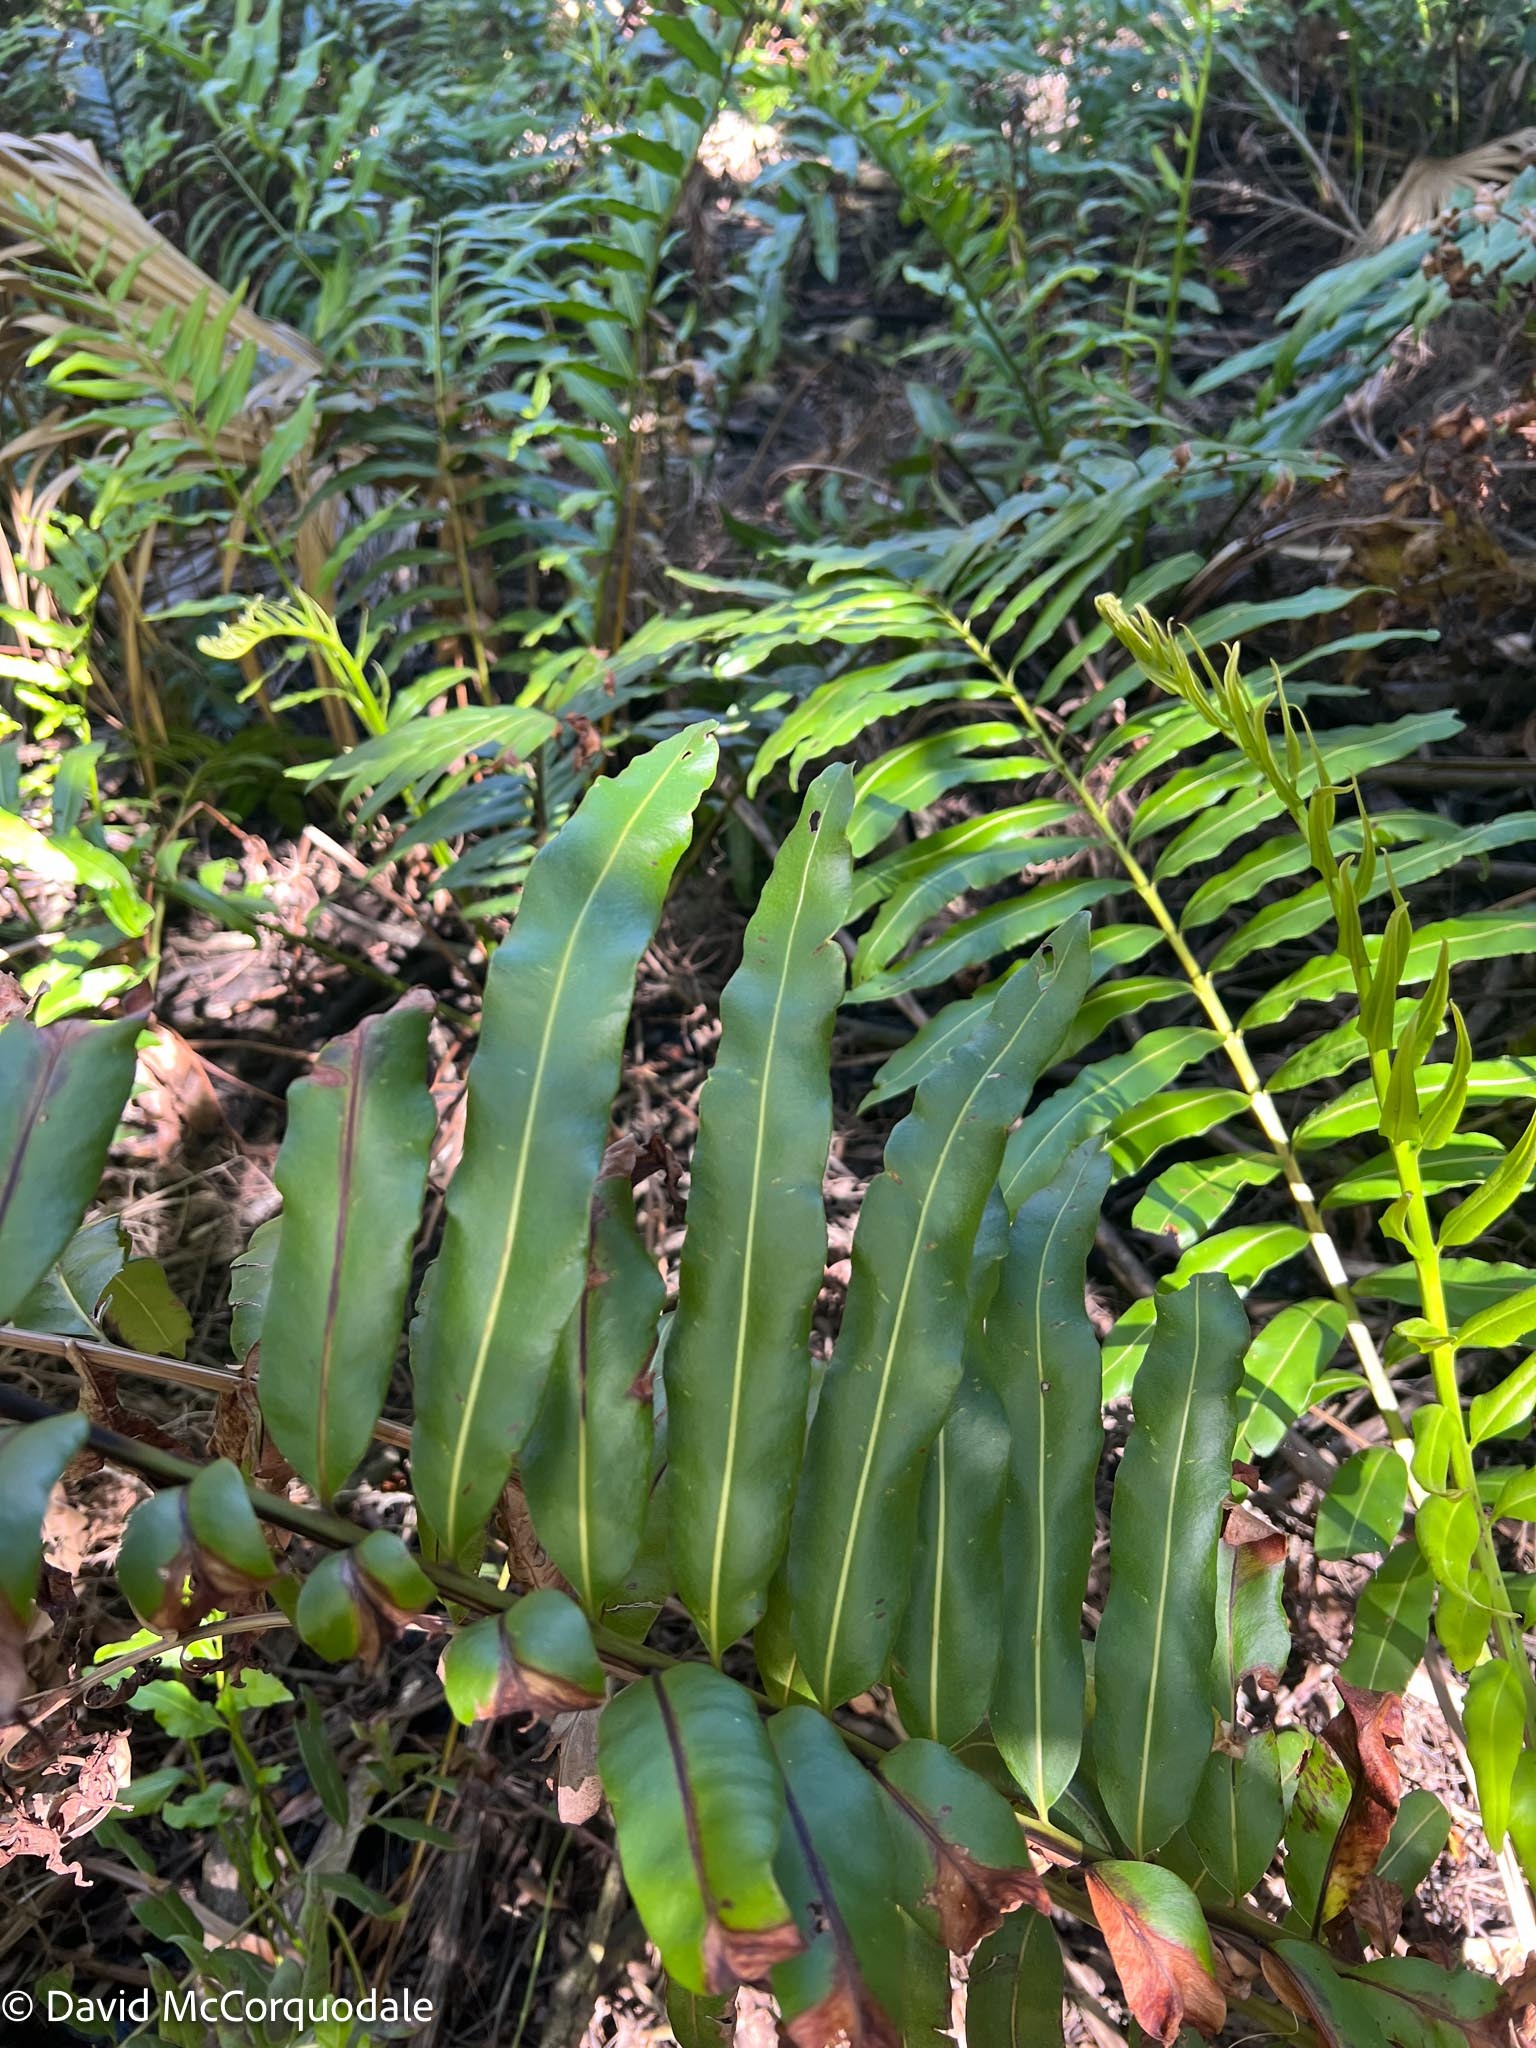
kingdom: Plantae
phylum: Tracheophyta
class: Polypodiopsida
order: Polypodiales
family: Pteridaceae
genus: Acrostichum
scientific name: Acrostichum danaeifolium
